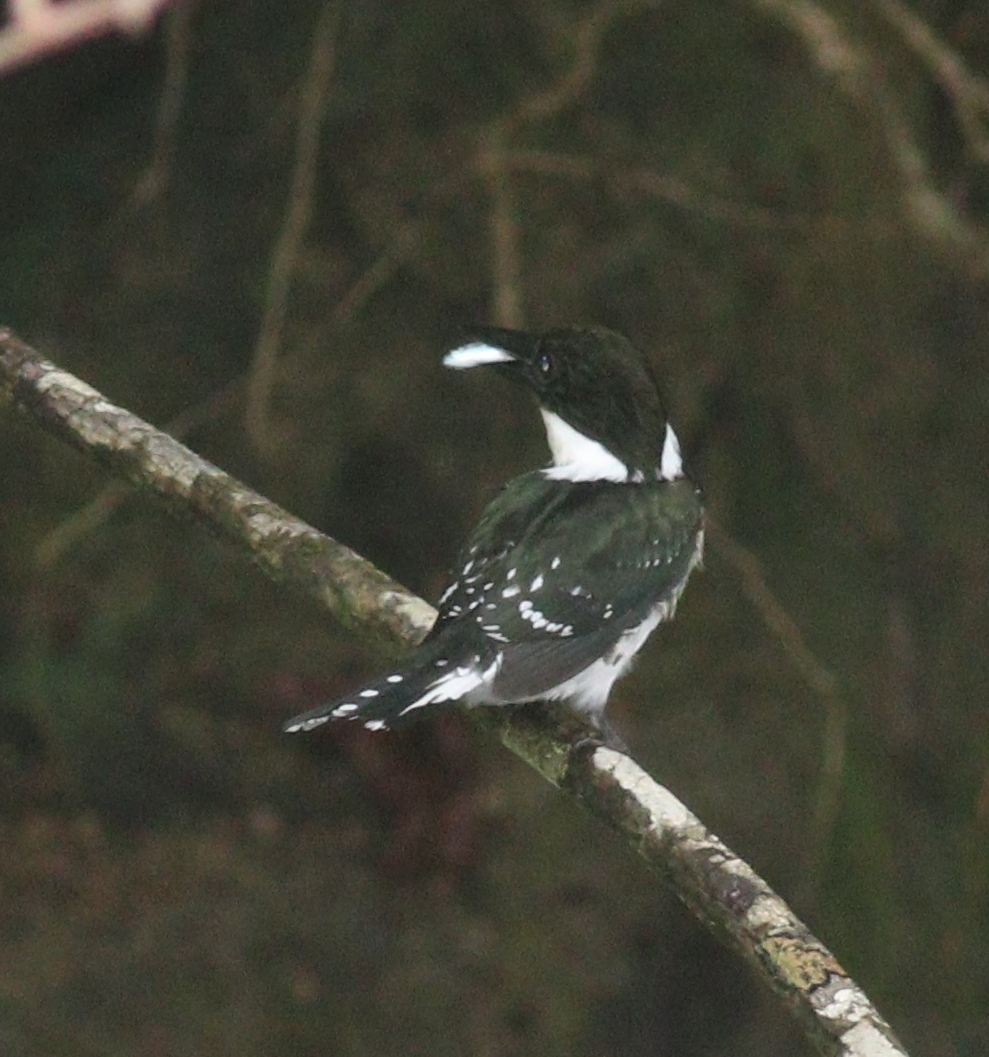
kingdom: Animalia
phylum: Chordata
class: Aves
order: Coraciiformes
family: Alcedinidae
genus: Chloroceryle
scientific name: Chloroceryle americana
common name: Green kingfisher
